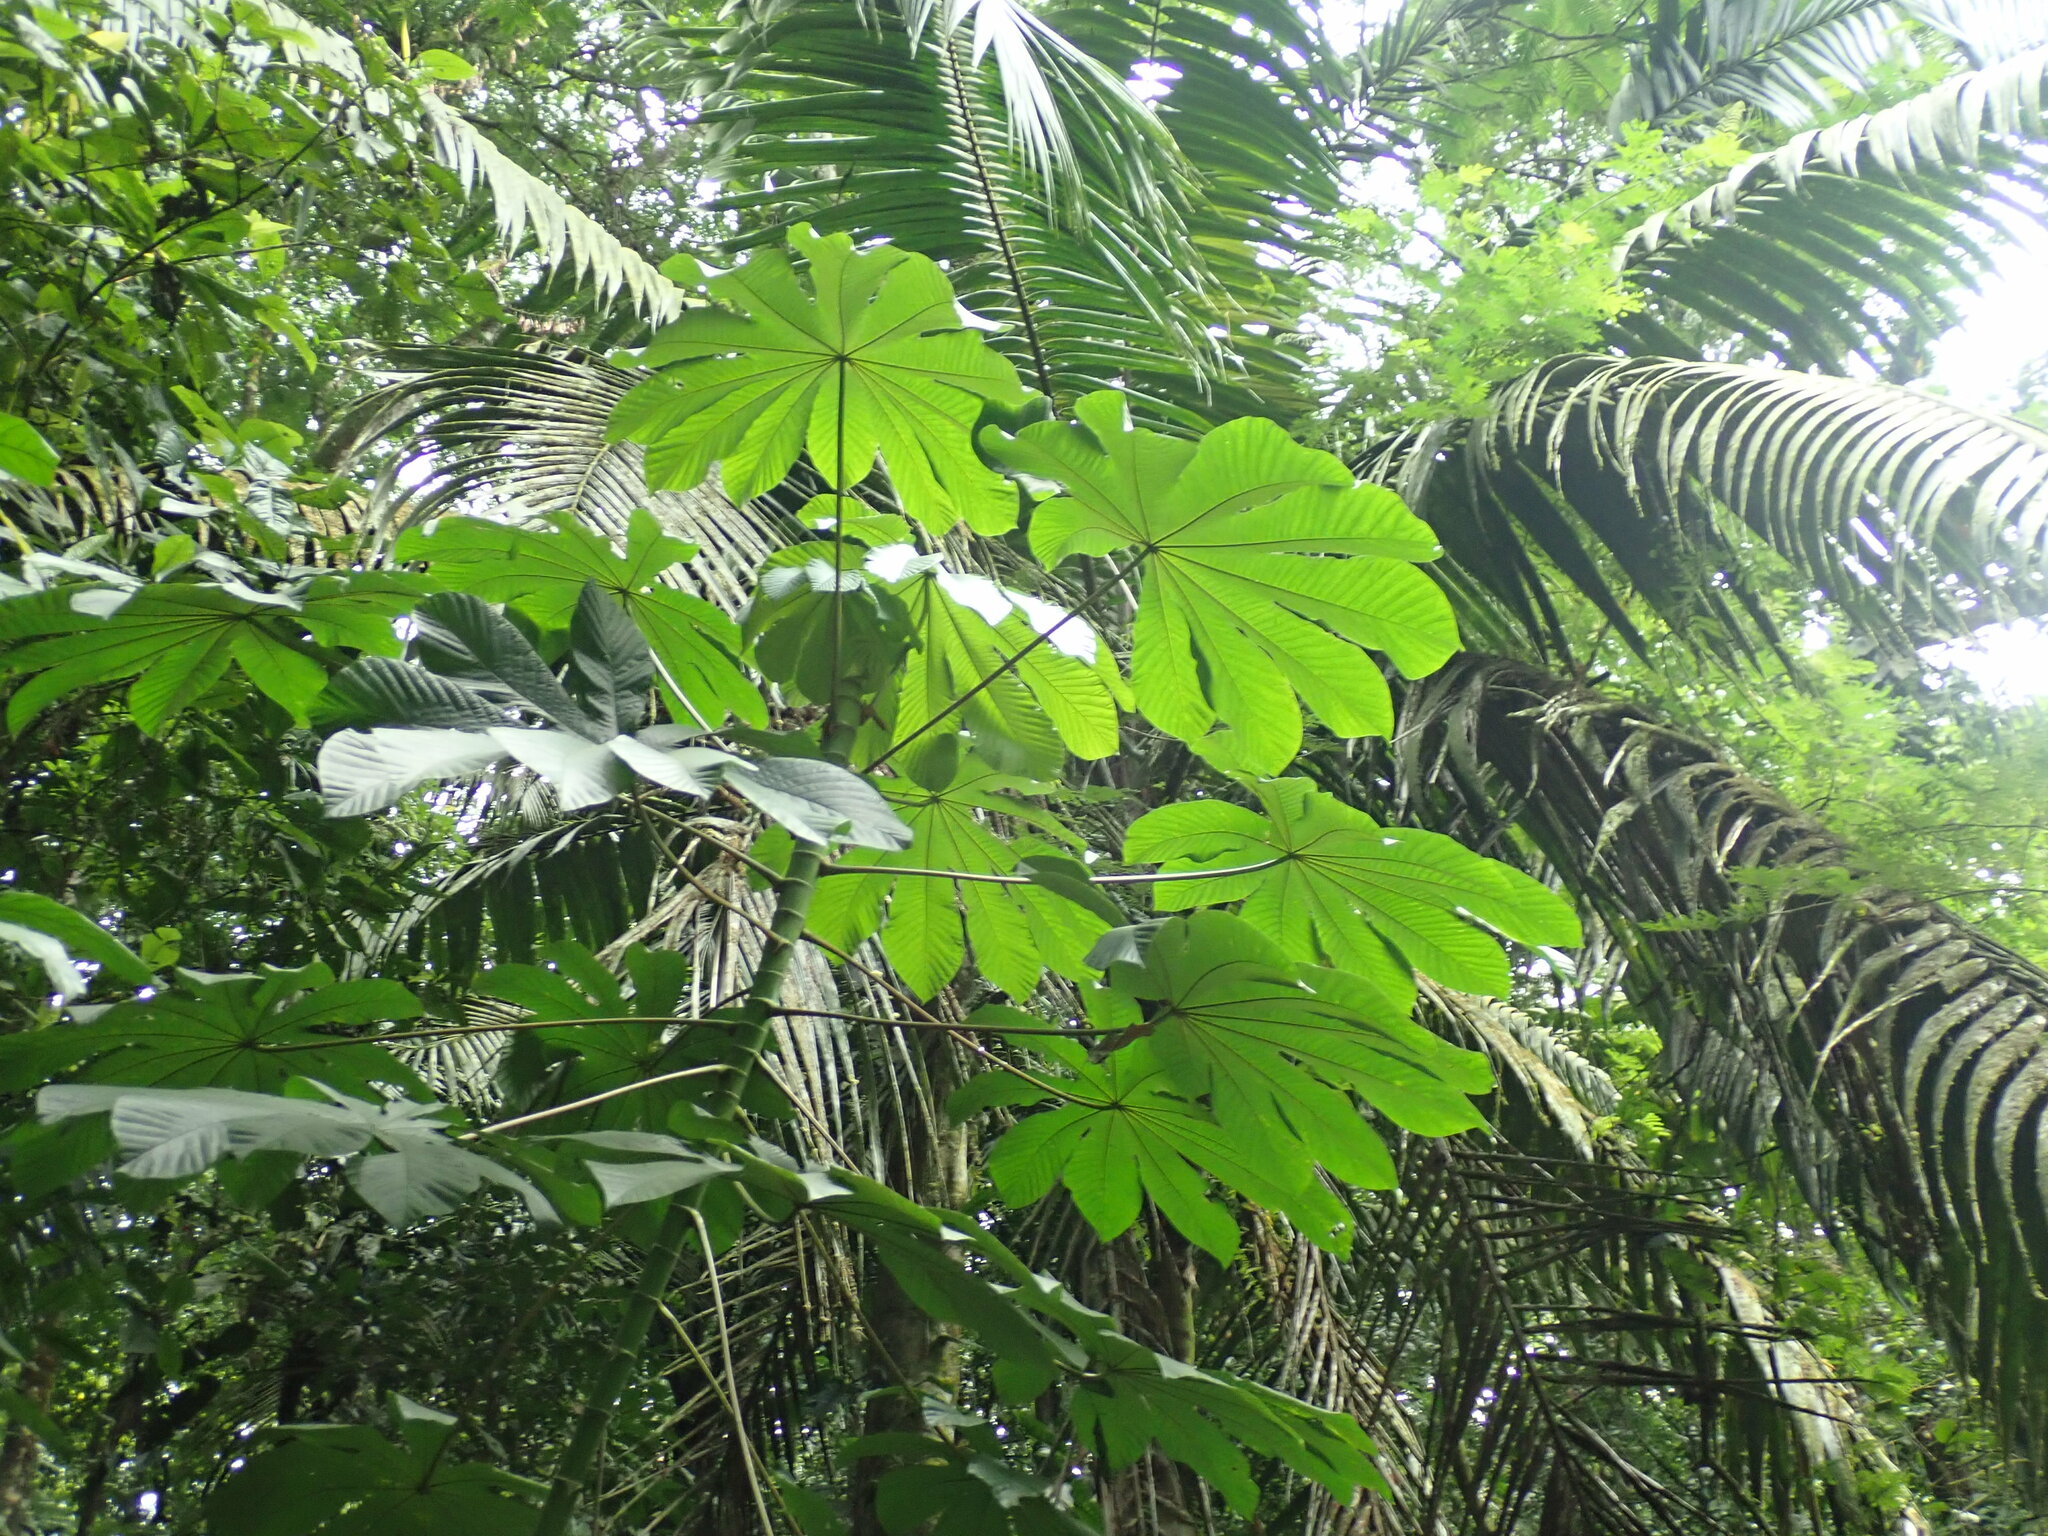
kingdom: Plantae
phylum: Tracheophyta
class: Magnoliopsida
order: Rosales
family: Urticaceae
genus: Cecropia
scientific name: Cecropia obtusifolia
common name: Trumpet tree
